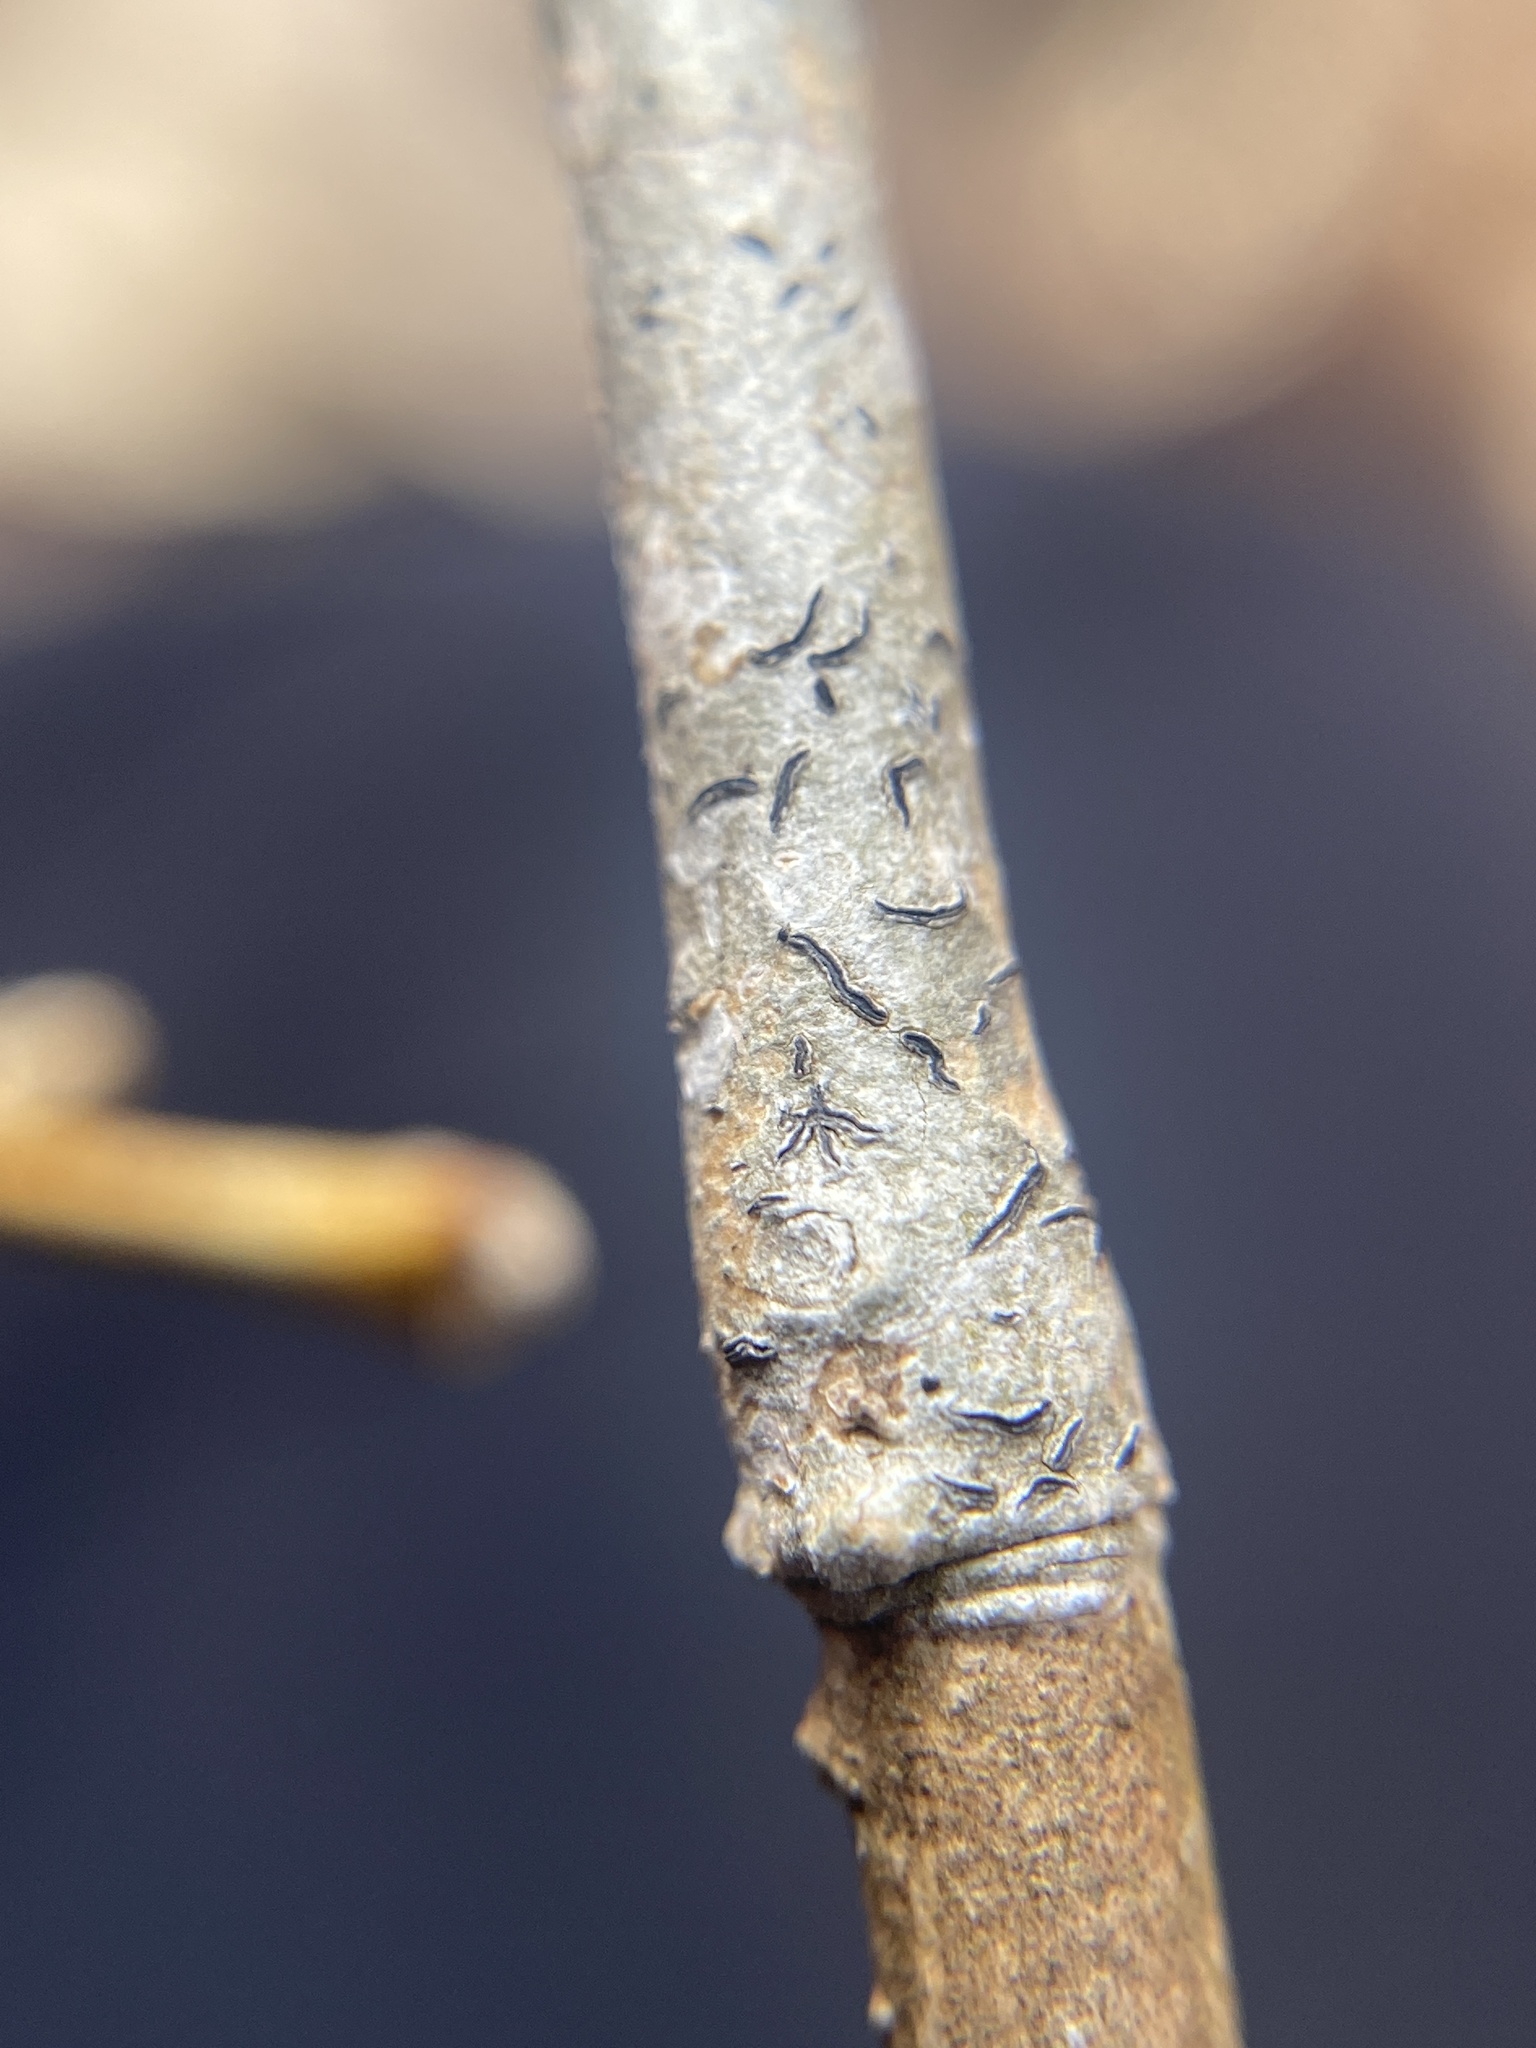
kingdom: Fungi
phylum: Ascomycota
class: Lecanoromycetes
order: Ostropales
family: Graphidaceae
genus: Graphis
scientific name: Graphis scripta
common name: Script lichen
